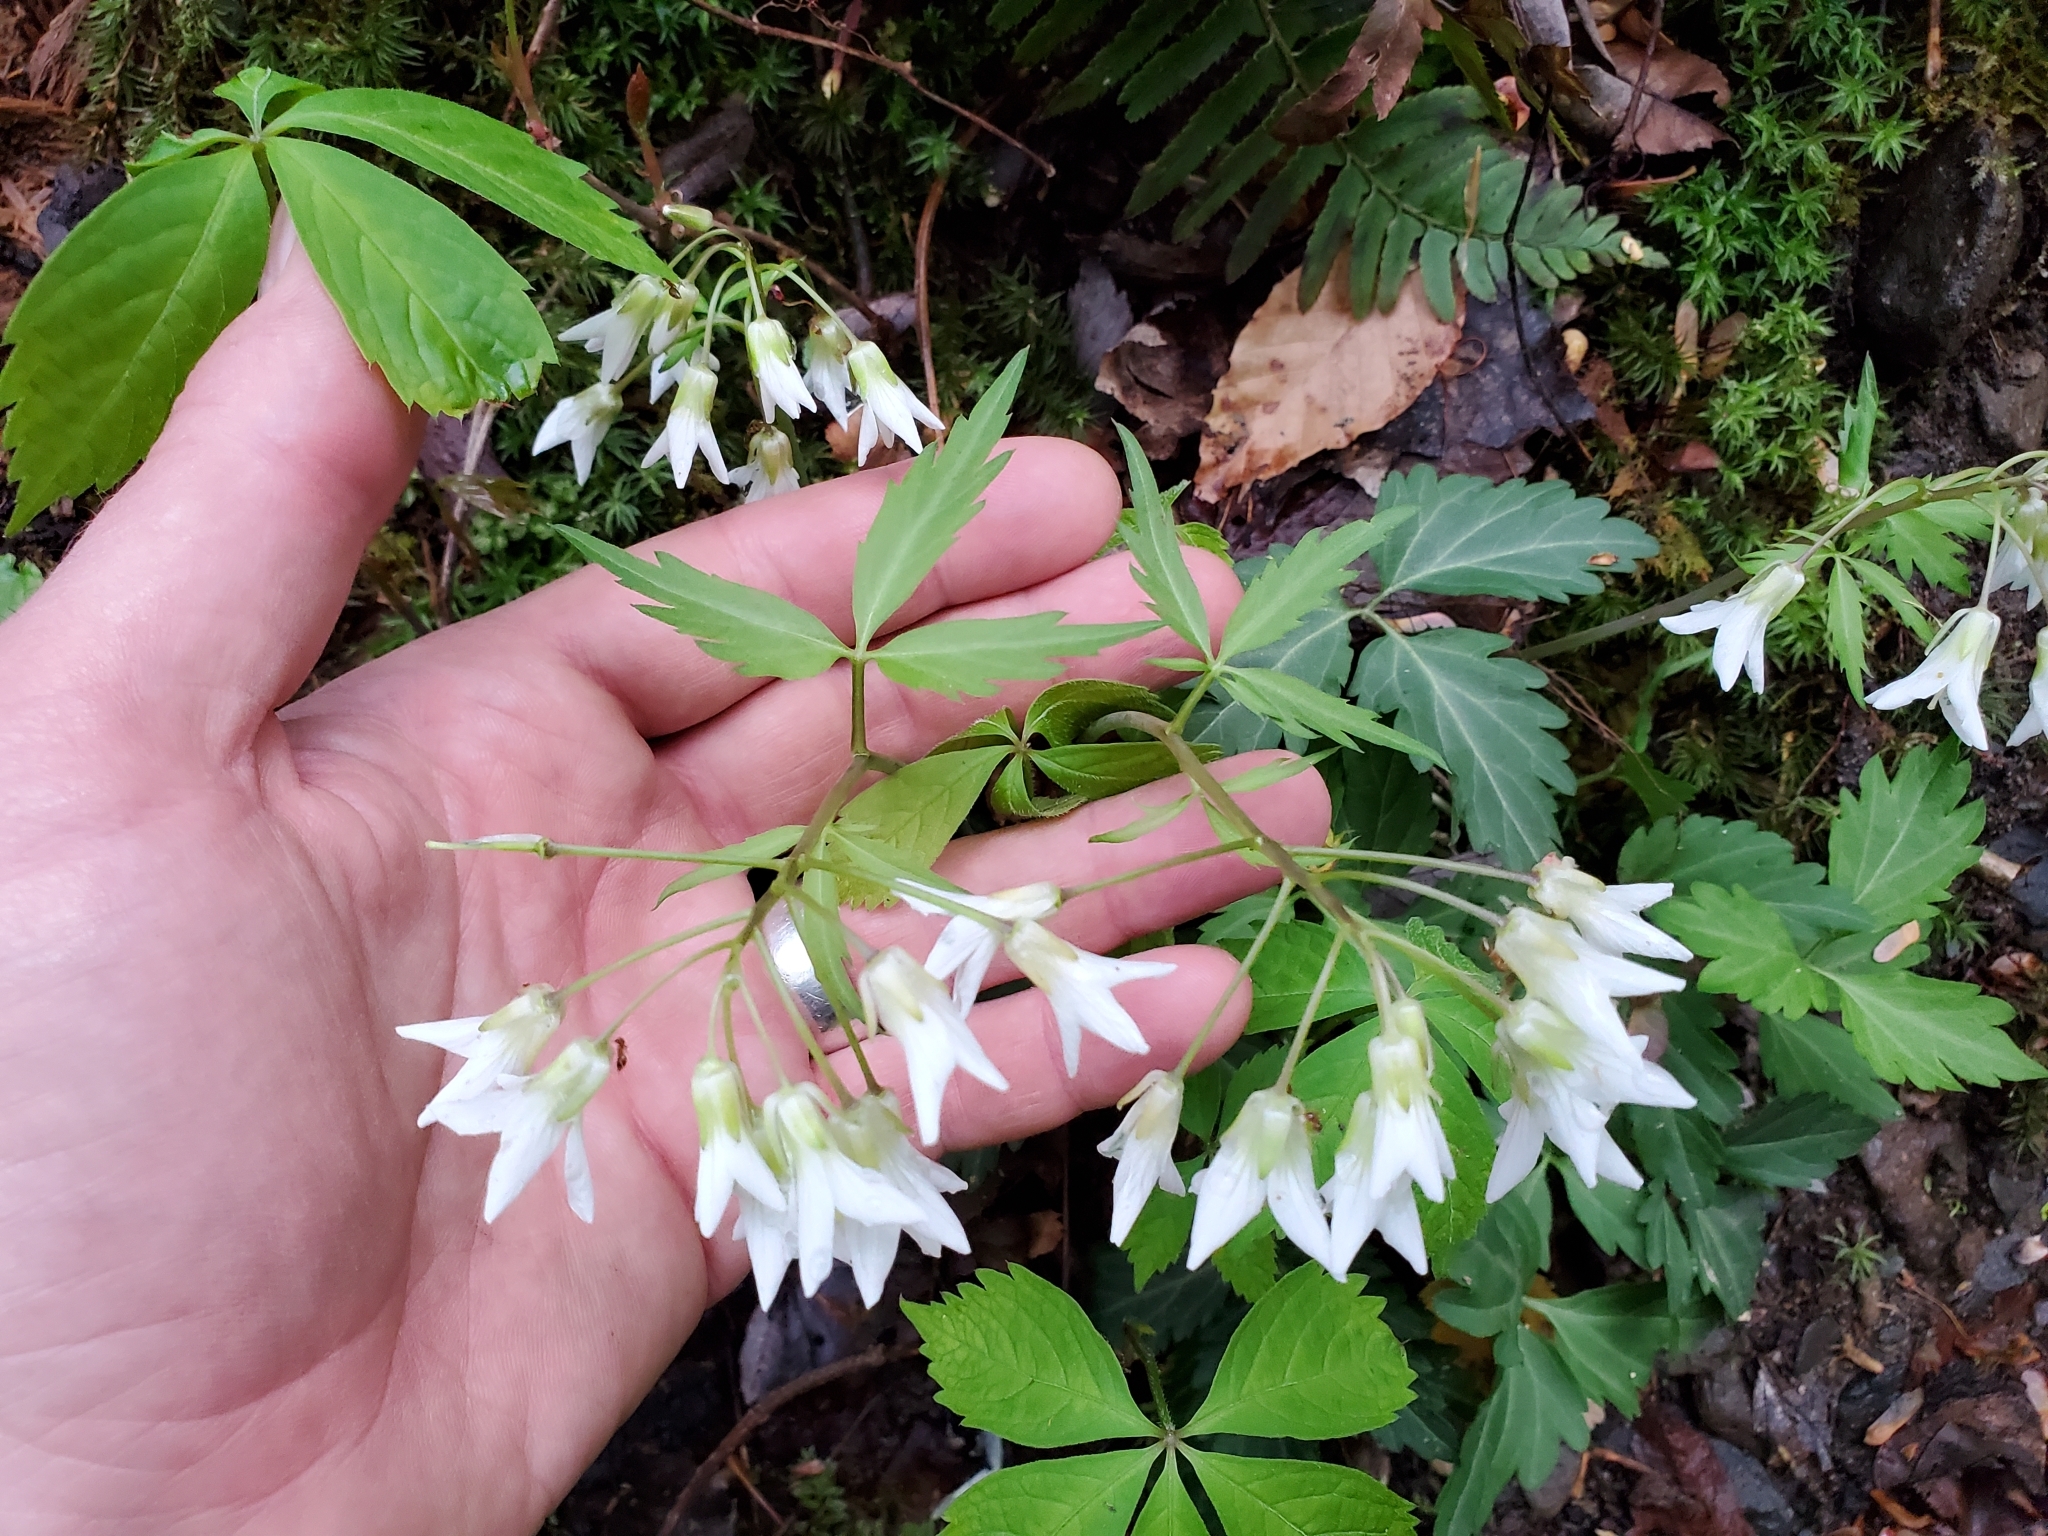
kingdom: Plantae
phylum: Tracheophyta
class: Magnoliopsida
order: Brassicales
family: Brassicaceae
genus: Cardamine
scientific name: Cardamine diphylla
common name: Broad-leaved toothwort
